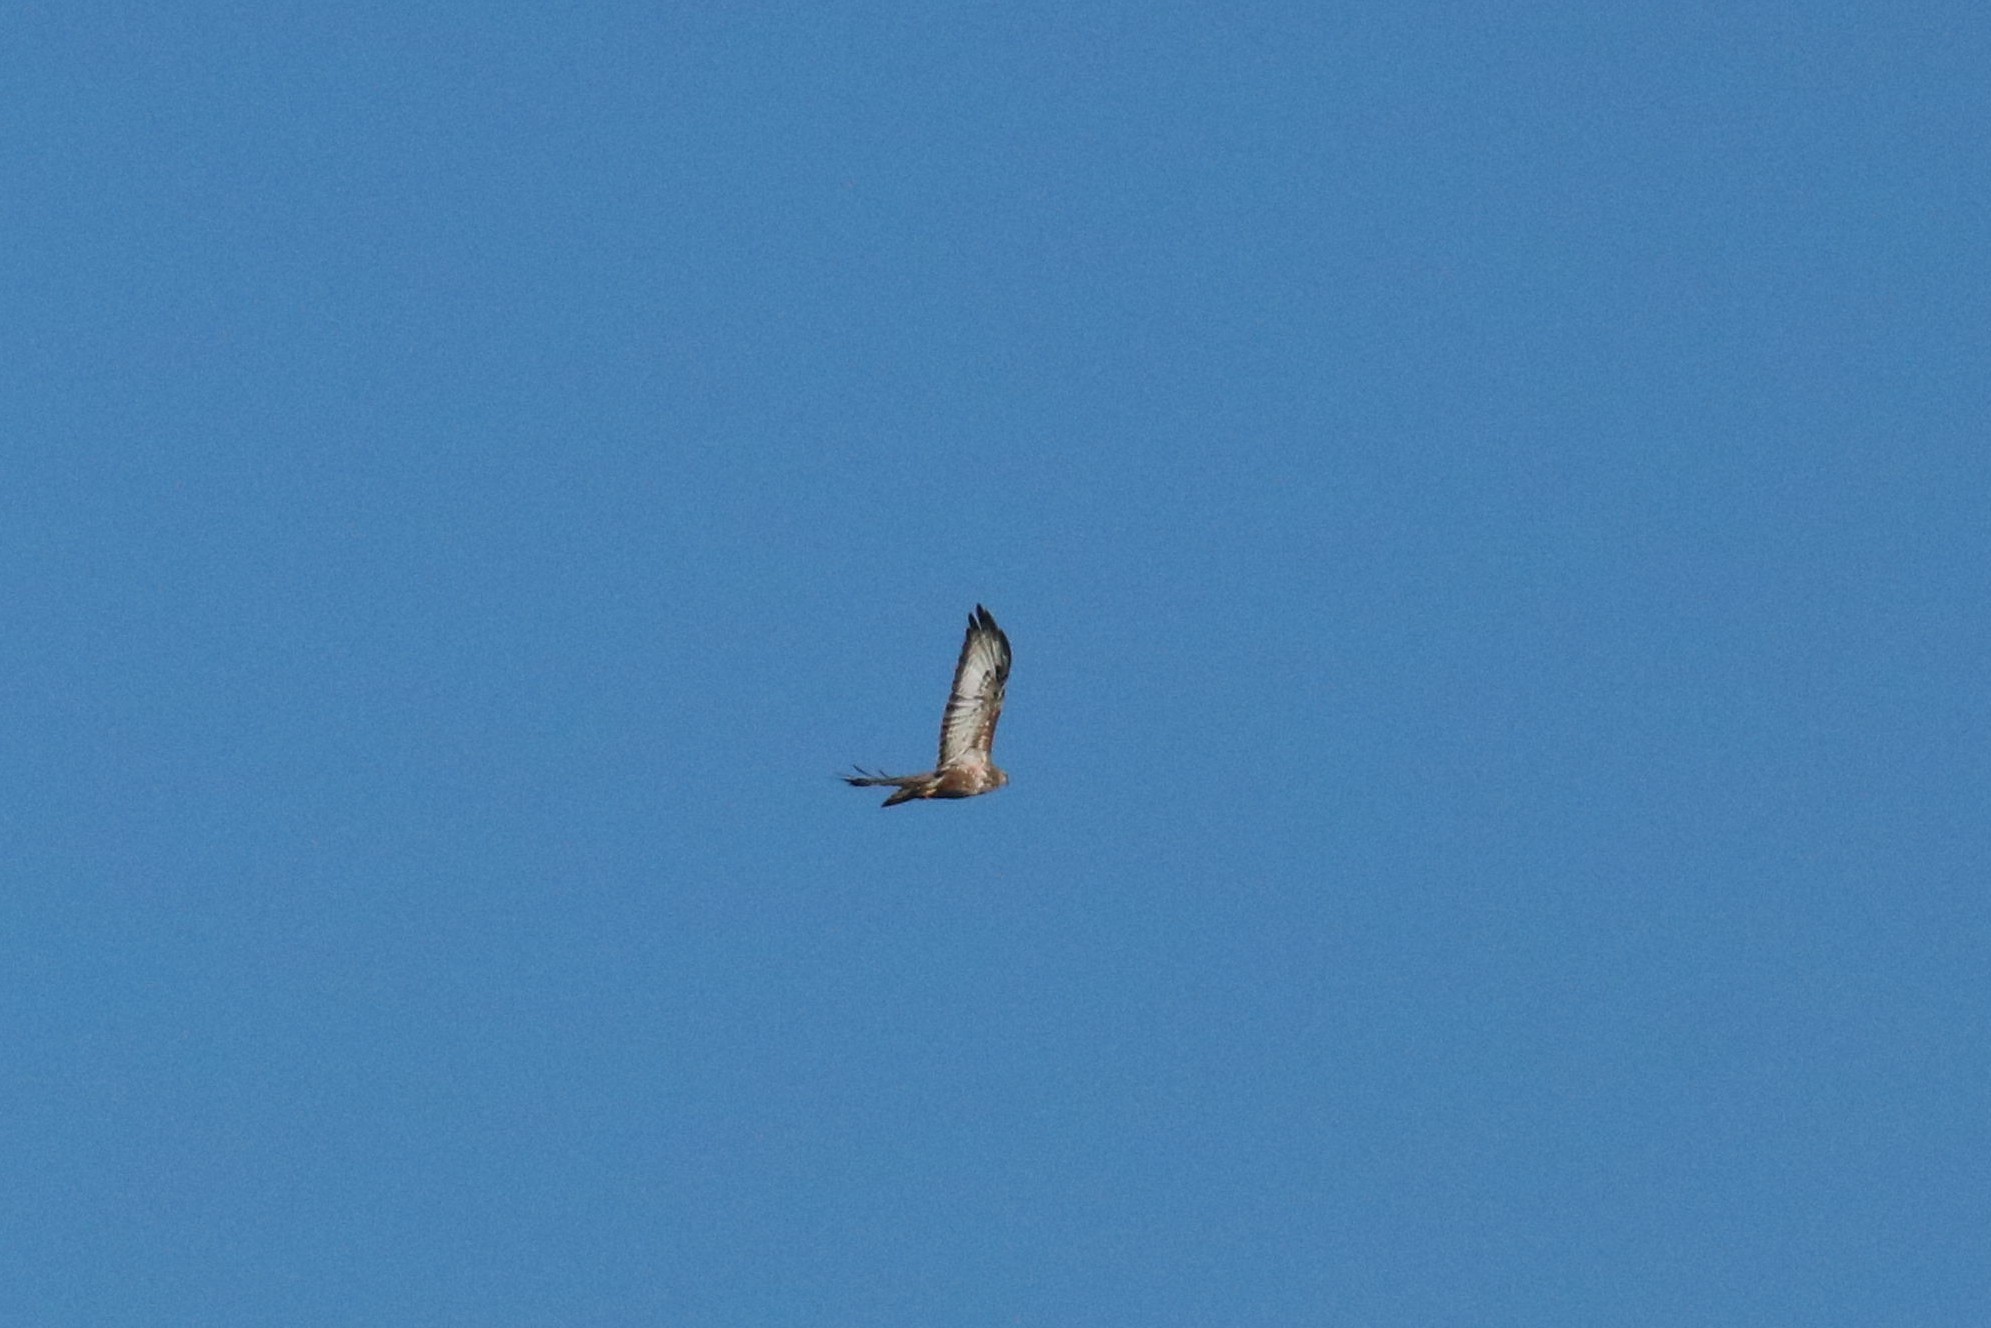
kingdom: Animalia
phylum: Chordata
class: Aves
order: Accipitriformes
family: Accipitridae
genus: Buteo
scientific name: Buteo buteo
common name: Common buzzard
